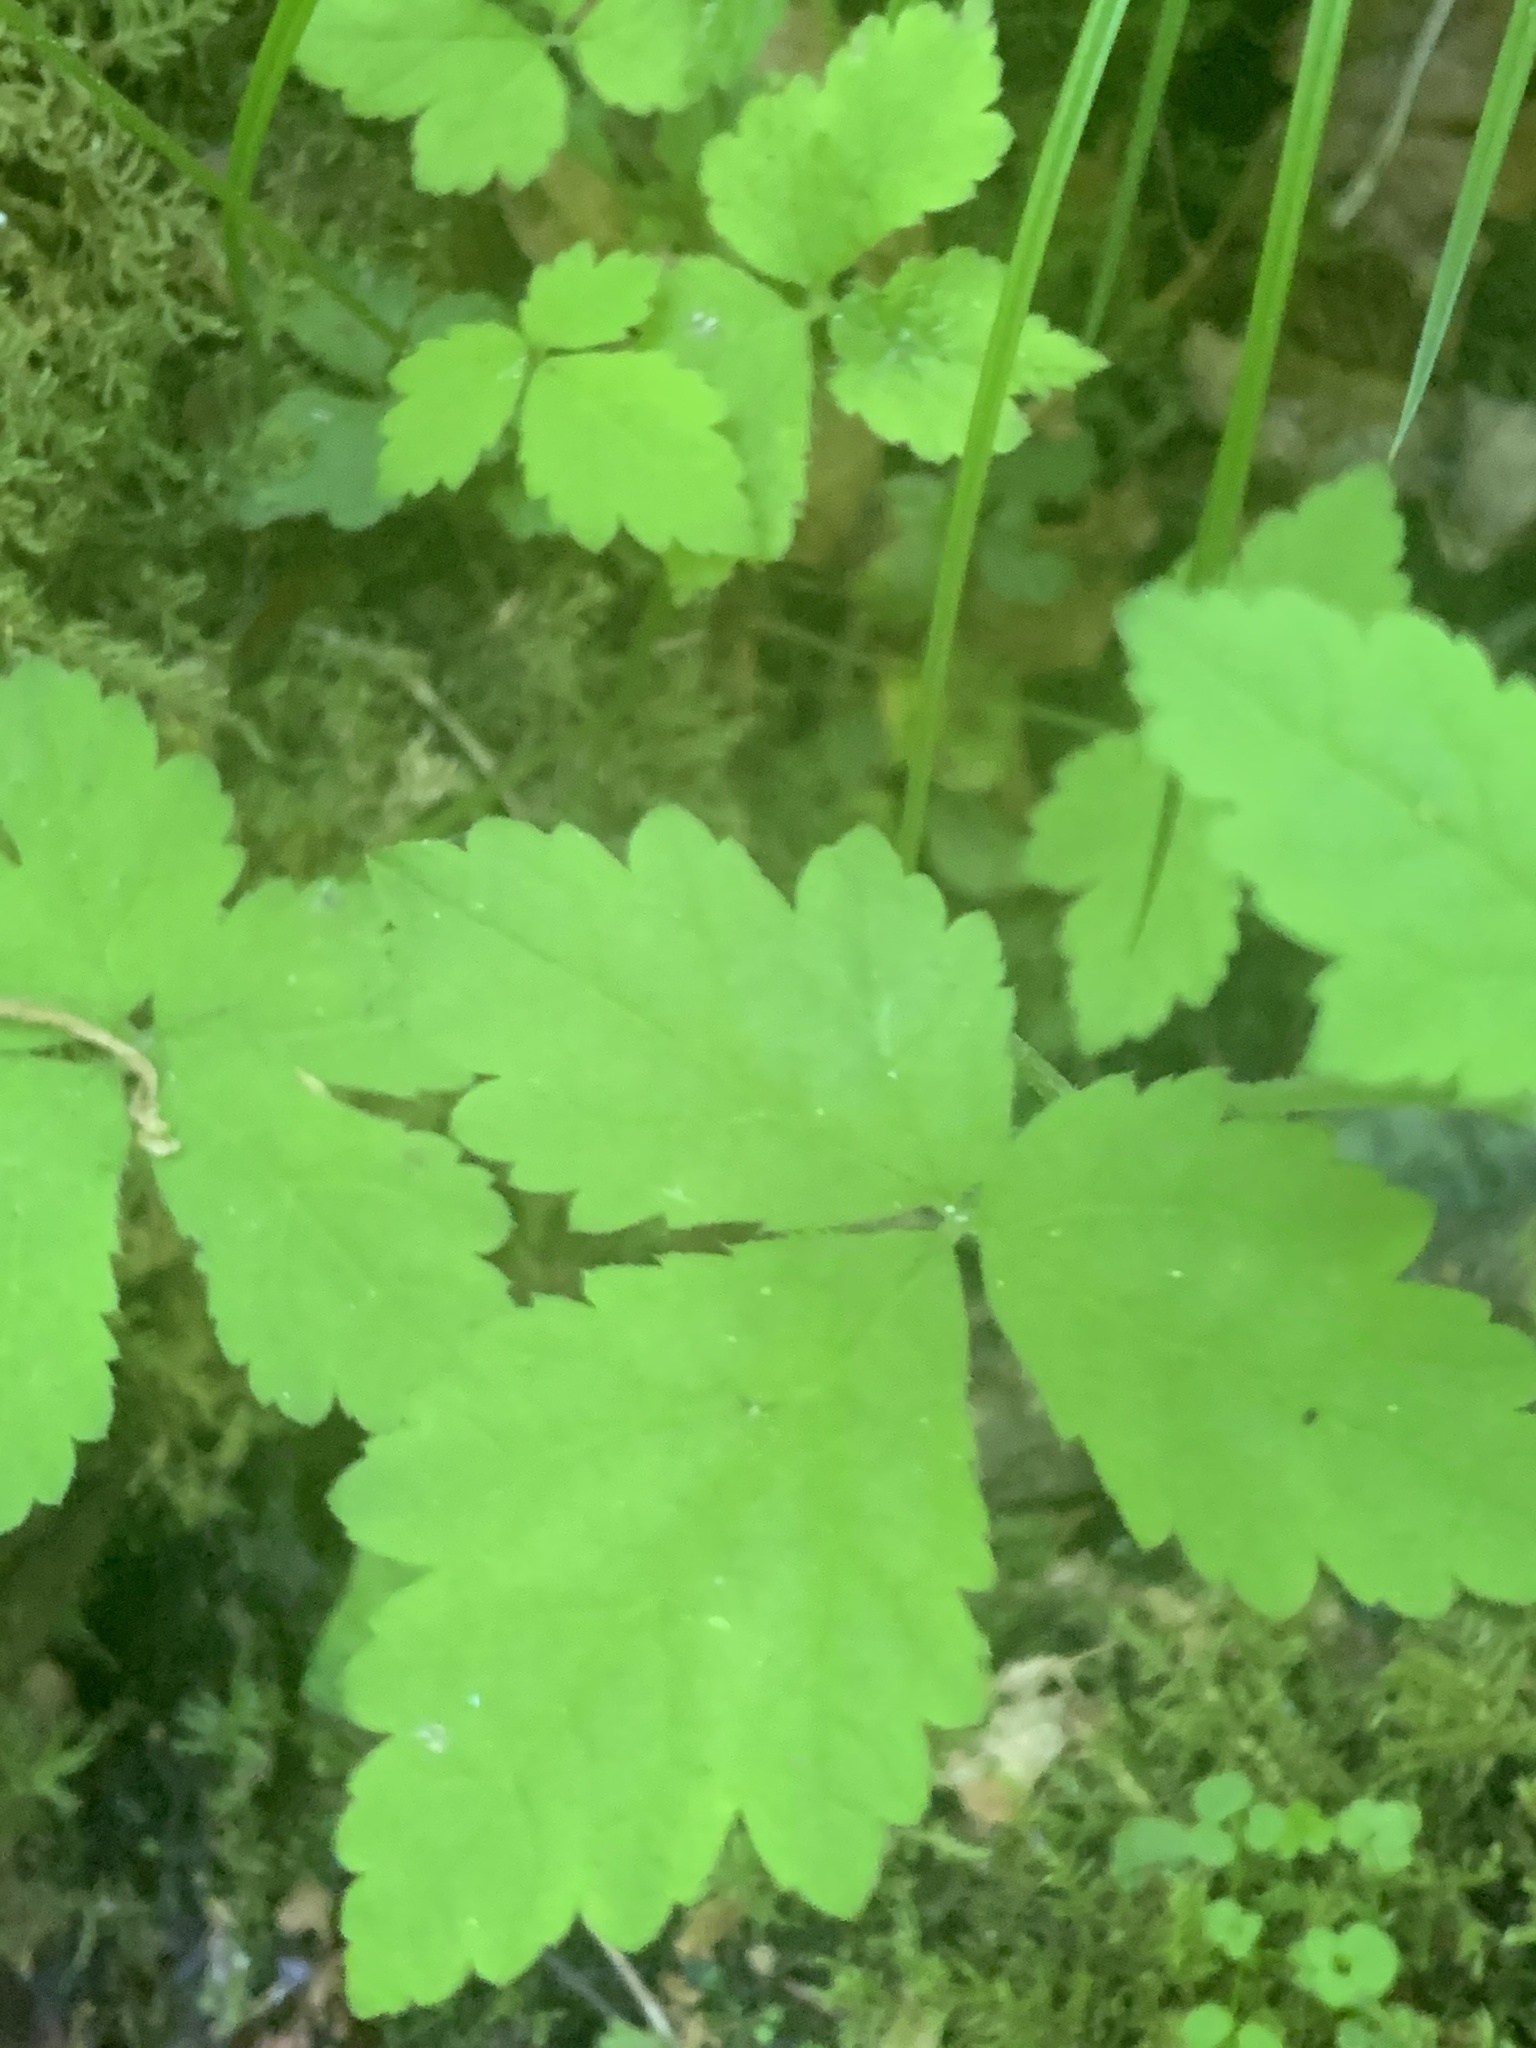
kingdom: Plantae
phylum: Tracheophyta
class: Magnoliopsida
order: Saxifragales
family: Saxifragaceae
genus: Tiarella
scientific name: Tiarella trifoliata
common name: Sugar-scoop
